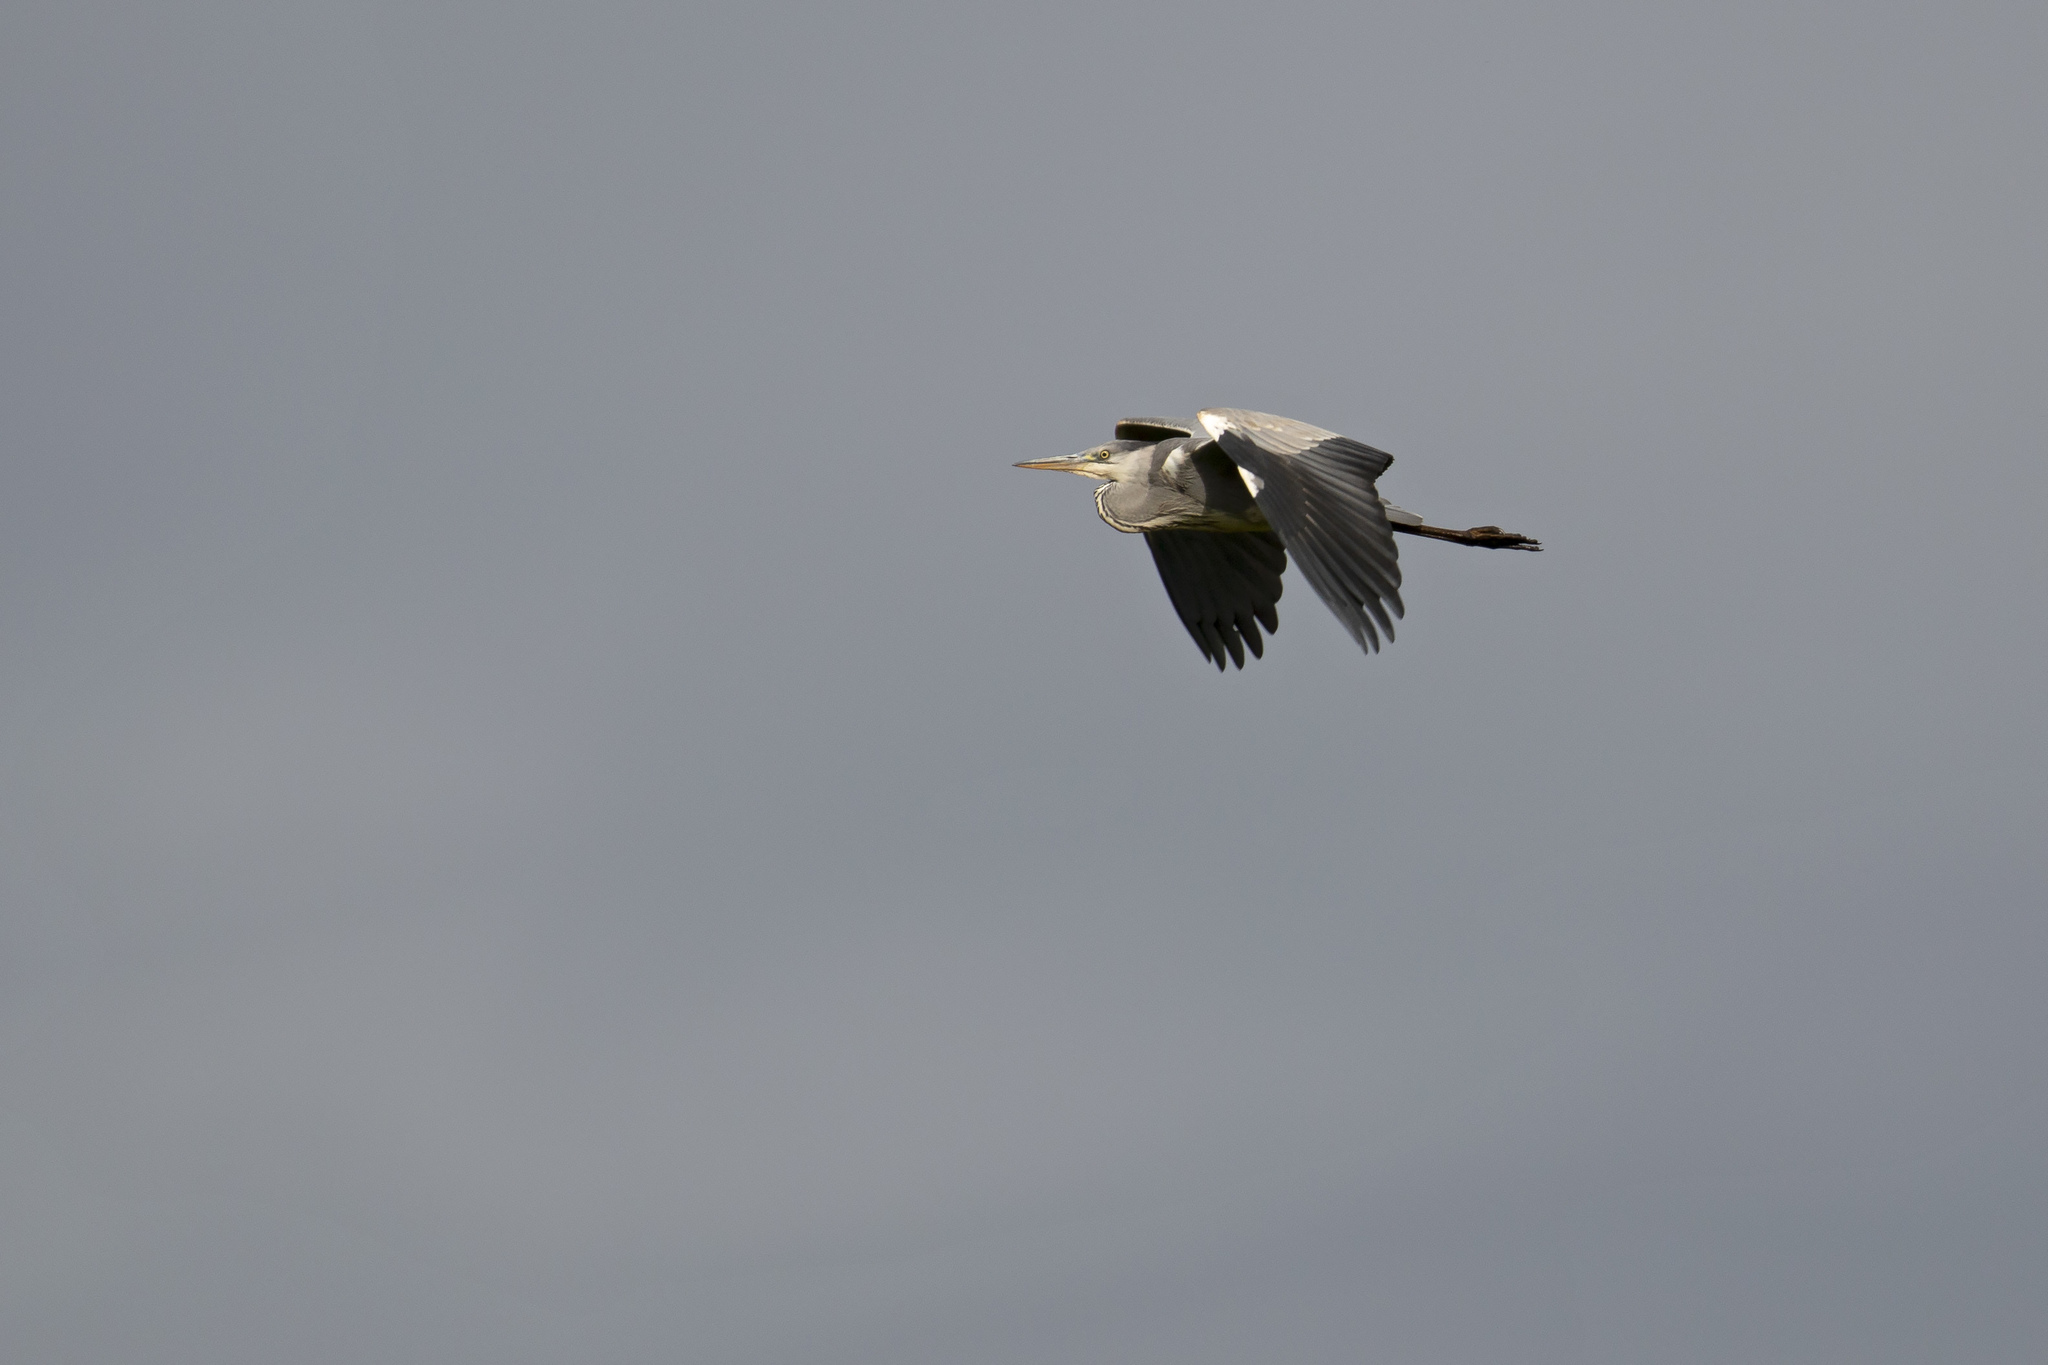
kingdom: Animalia
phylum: Chordata
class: Aves
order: Pelecaniformes
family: Ardeidae
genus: Ardea
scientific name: Ardea cinerea
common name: Grey heron
